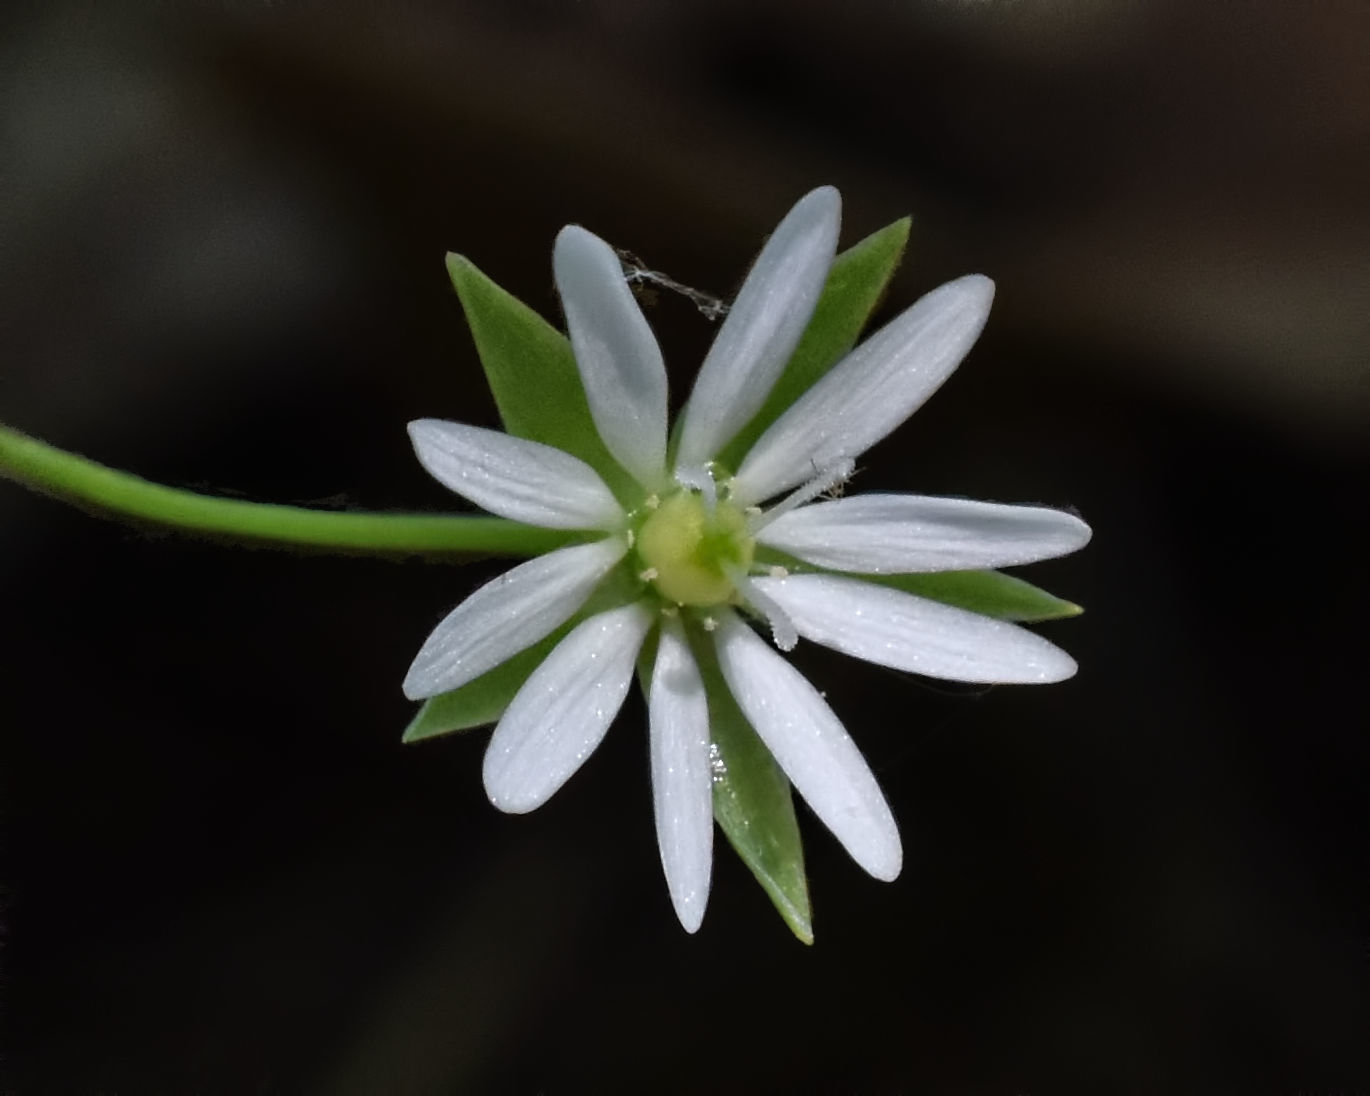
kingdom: Plantae
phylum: Tracheophyta
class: Magnoliopsida
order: Caryophyllales
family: Caryophyllaceae
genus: Stellaria
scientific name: Stellaria longifolia
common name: Long-leaved chickweed
